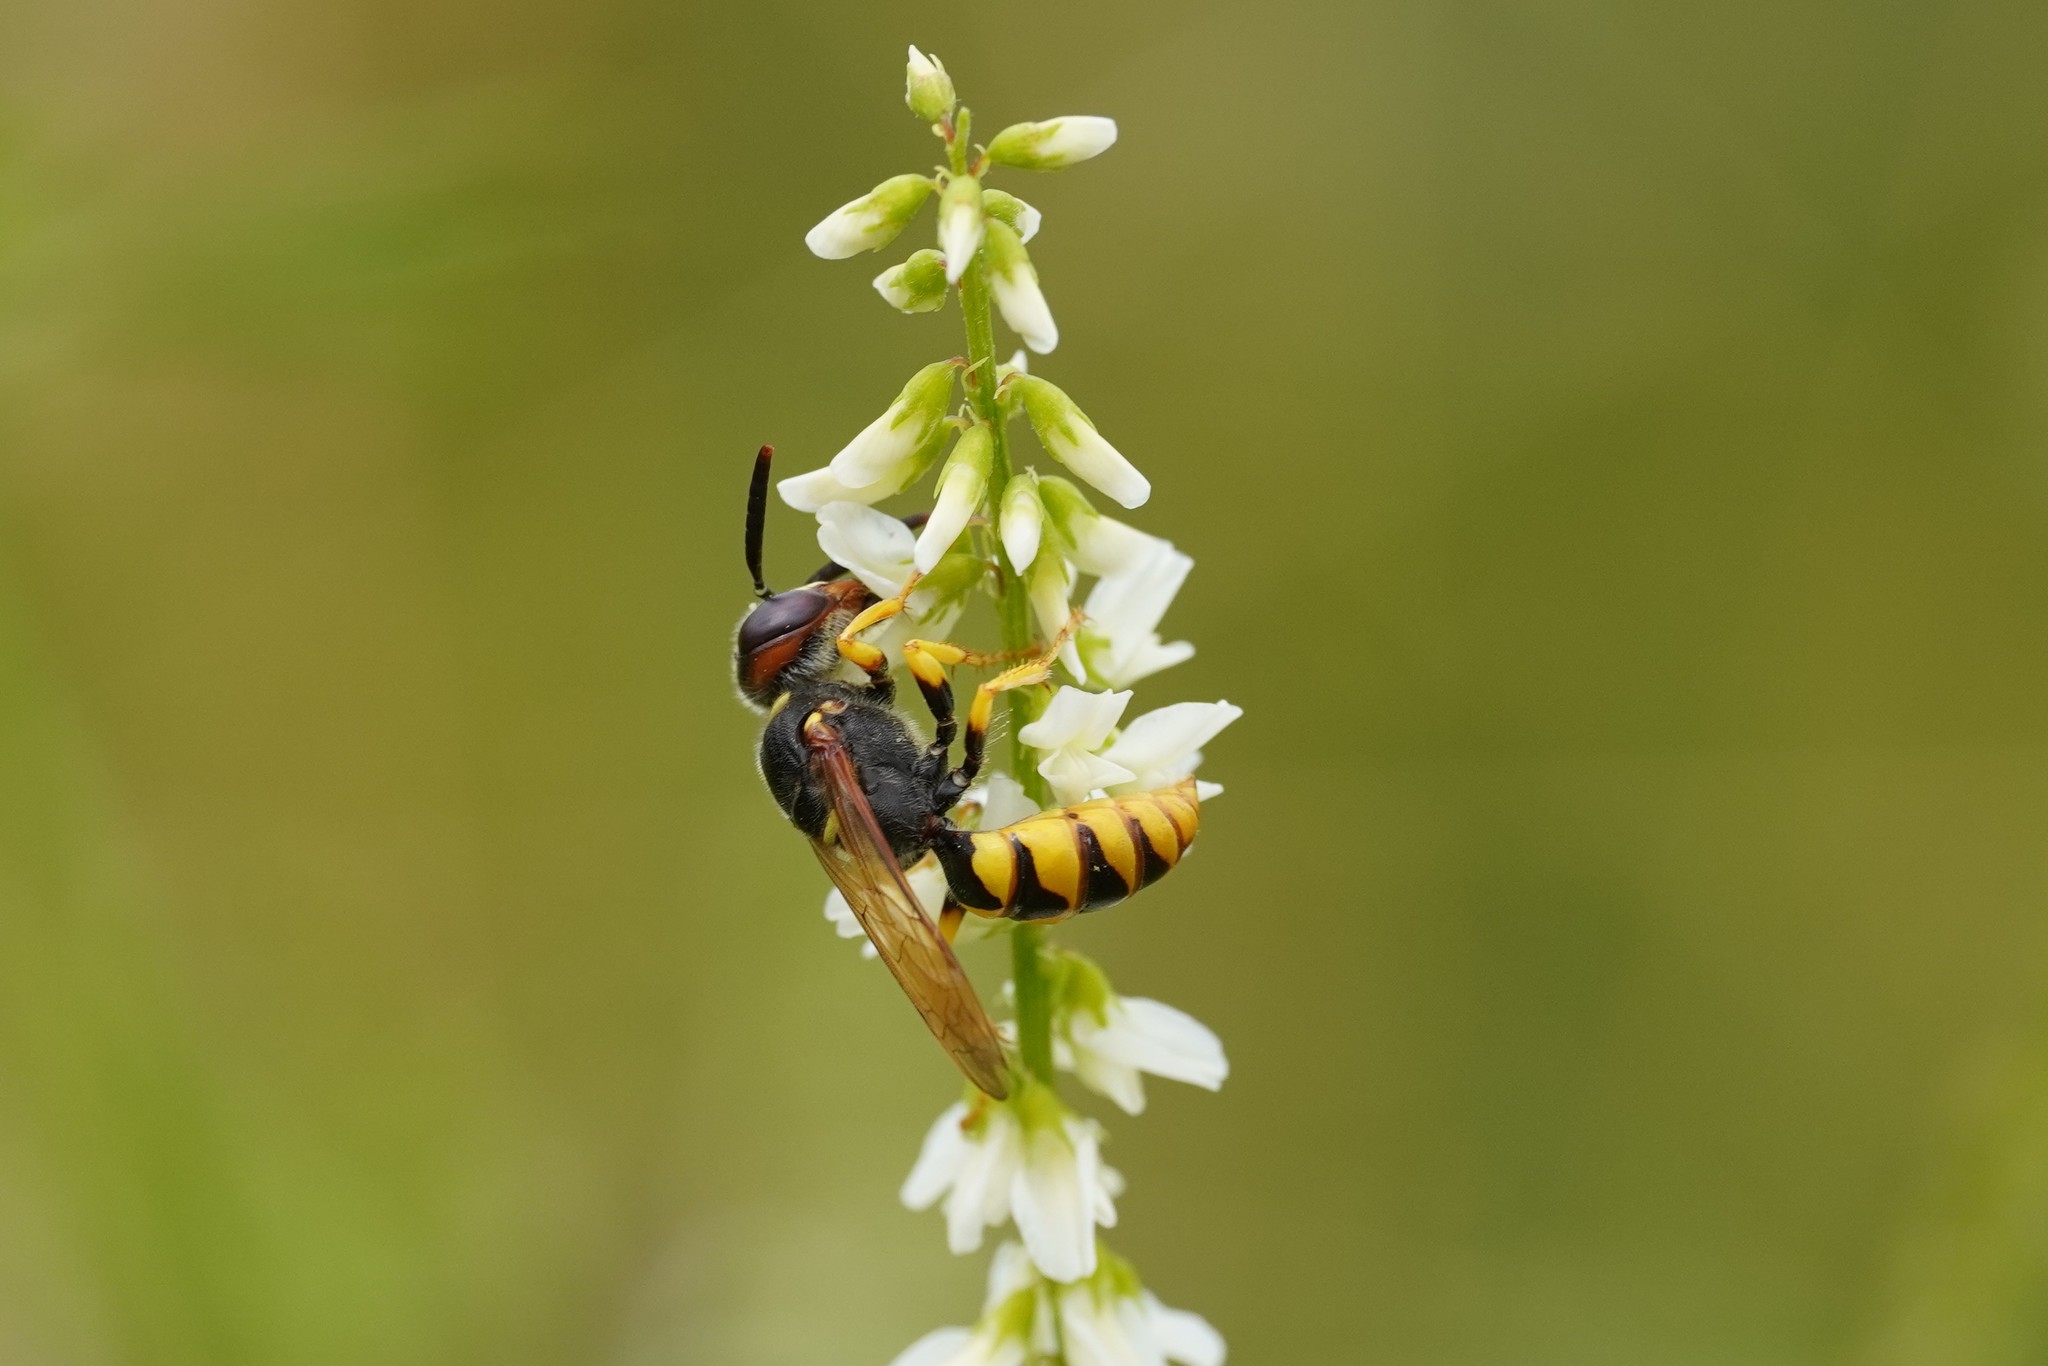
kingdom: Animalia
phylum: Arthropoda
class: Insecta
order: Hymenoptera
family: Crabronidae
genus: Philanthus
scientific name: Philanthus triangulum
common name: Bee wolf
